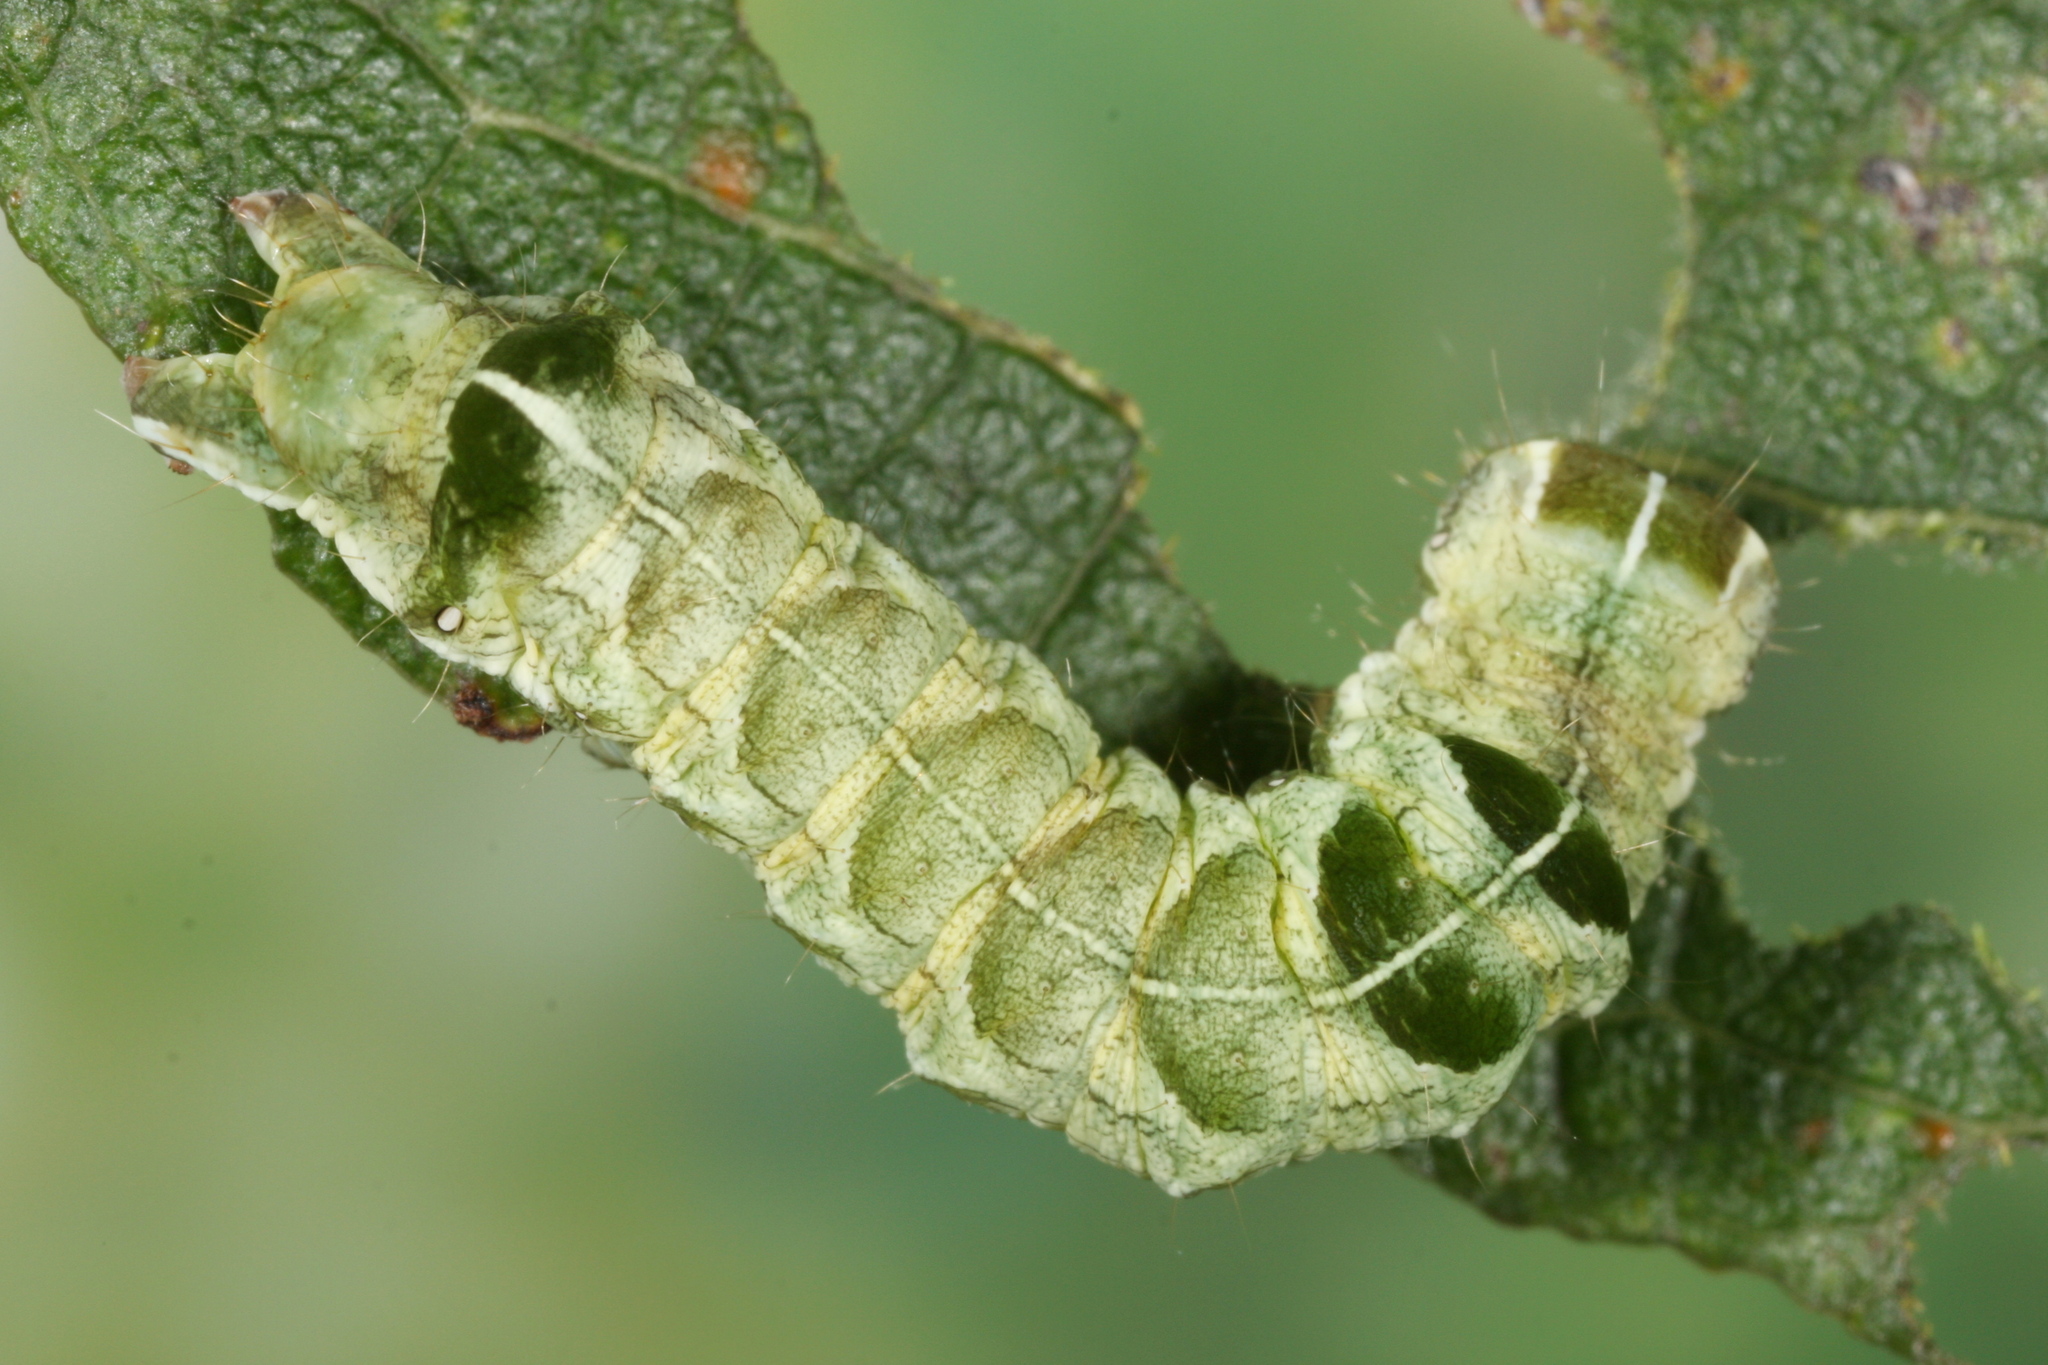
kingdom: Animalia
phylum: Arthropoda
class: Insecta
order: Lepidoptera
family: Noctuidae
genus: Melanchra
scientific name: Melanchra persicariae
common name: Dot moth
